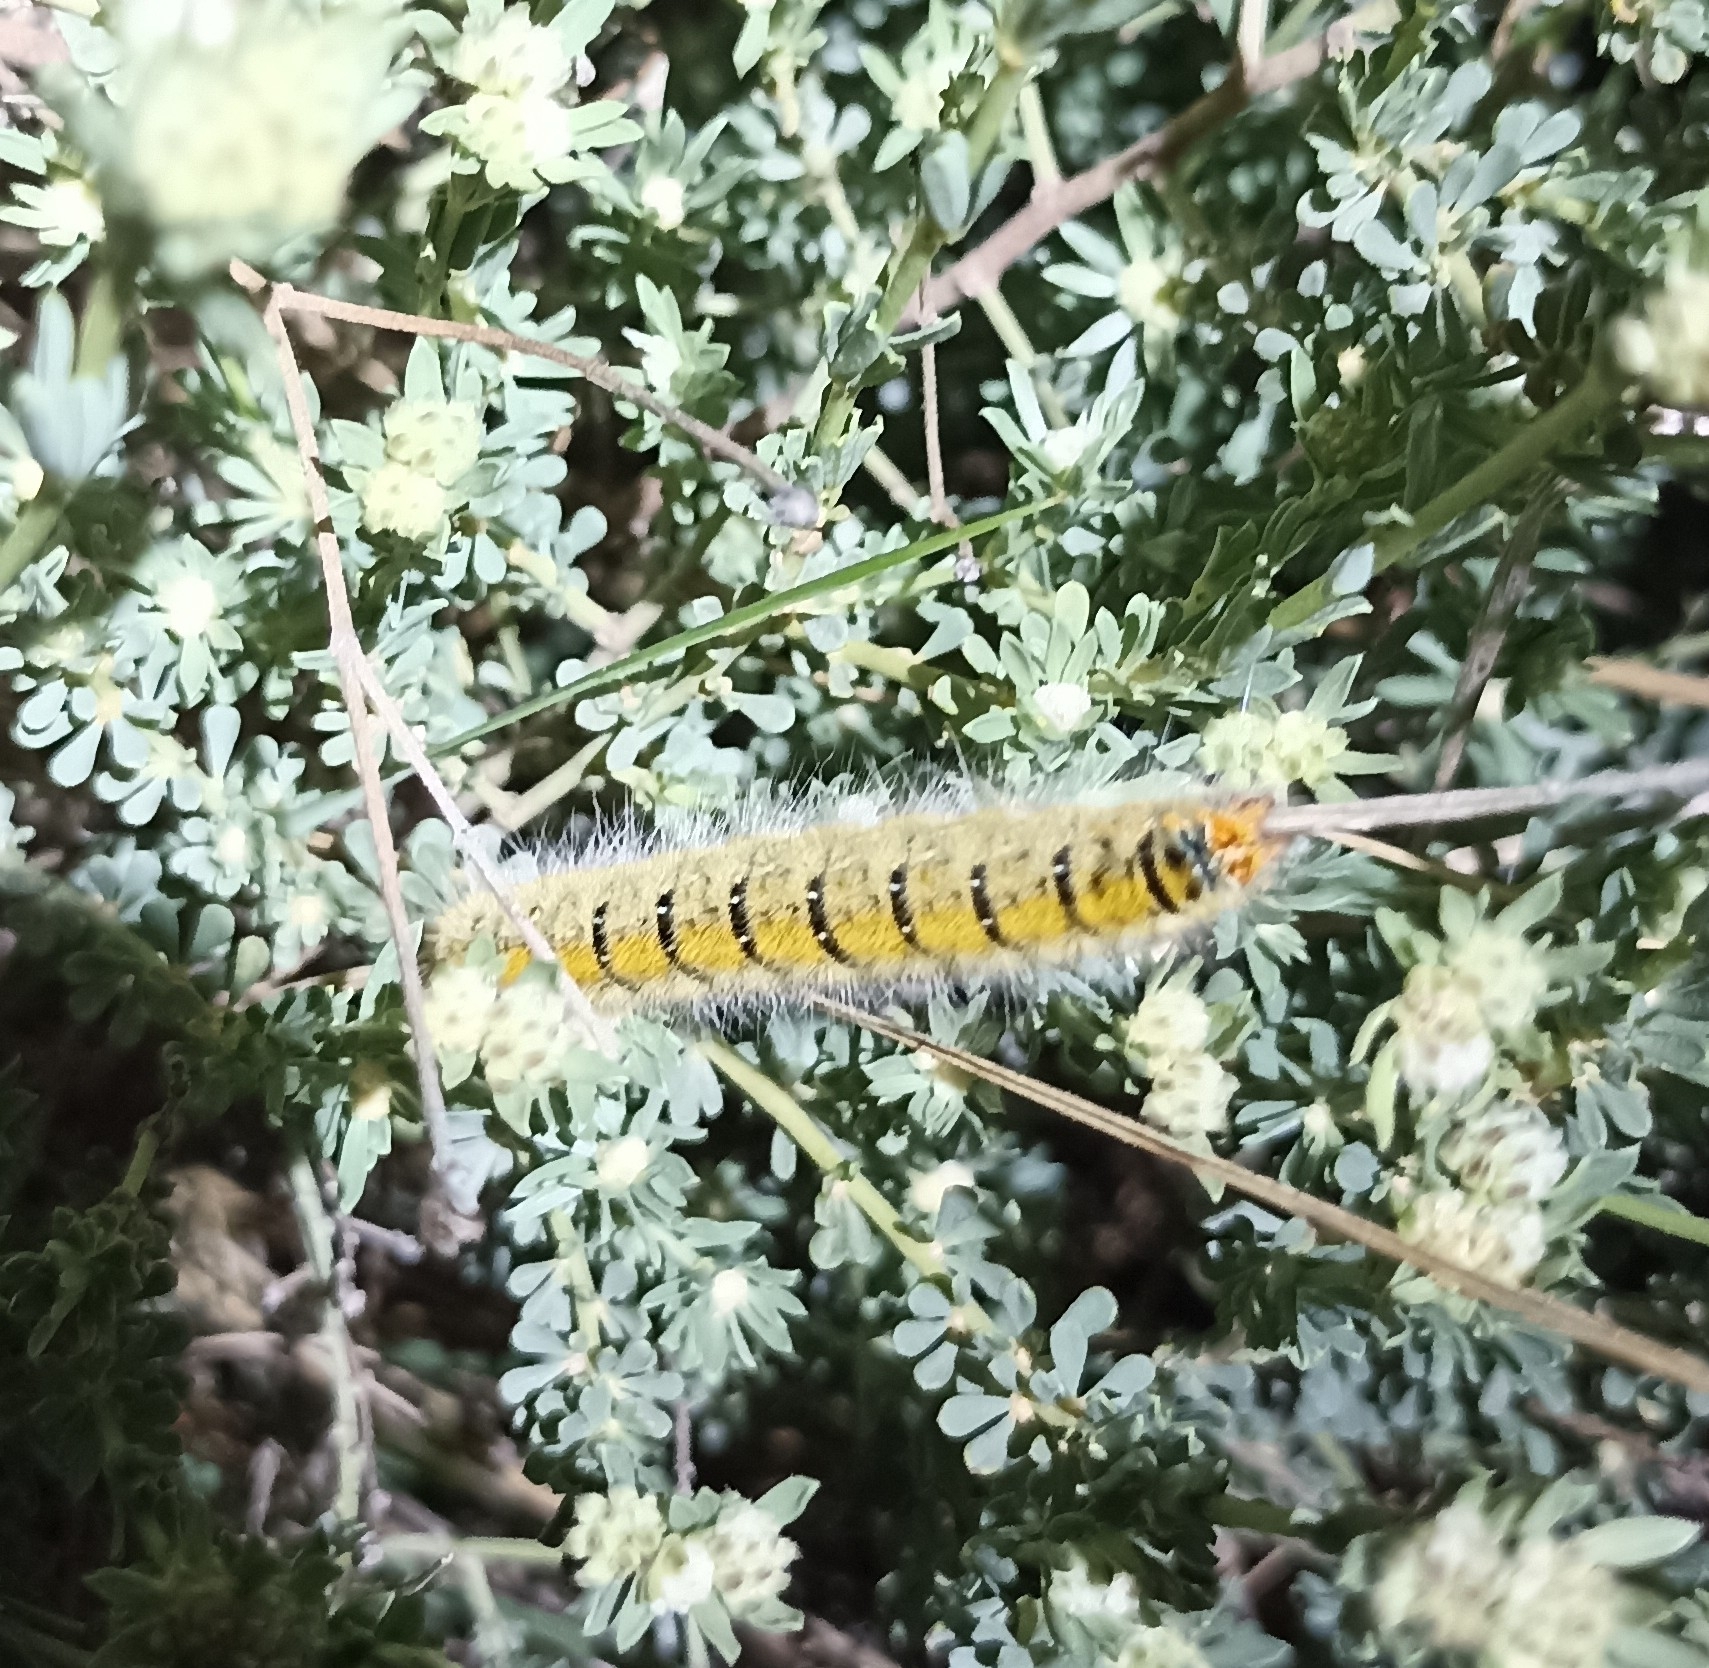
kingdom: Animalia
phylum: Arthropoda
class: Insecta
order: Lepidoptera
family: Lasiocampidae
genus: Lasiocampa
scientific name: Lasiocampa trifolii
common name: Grass eggar
